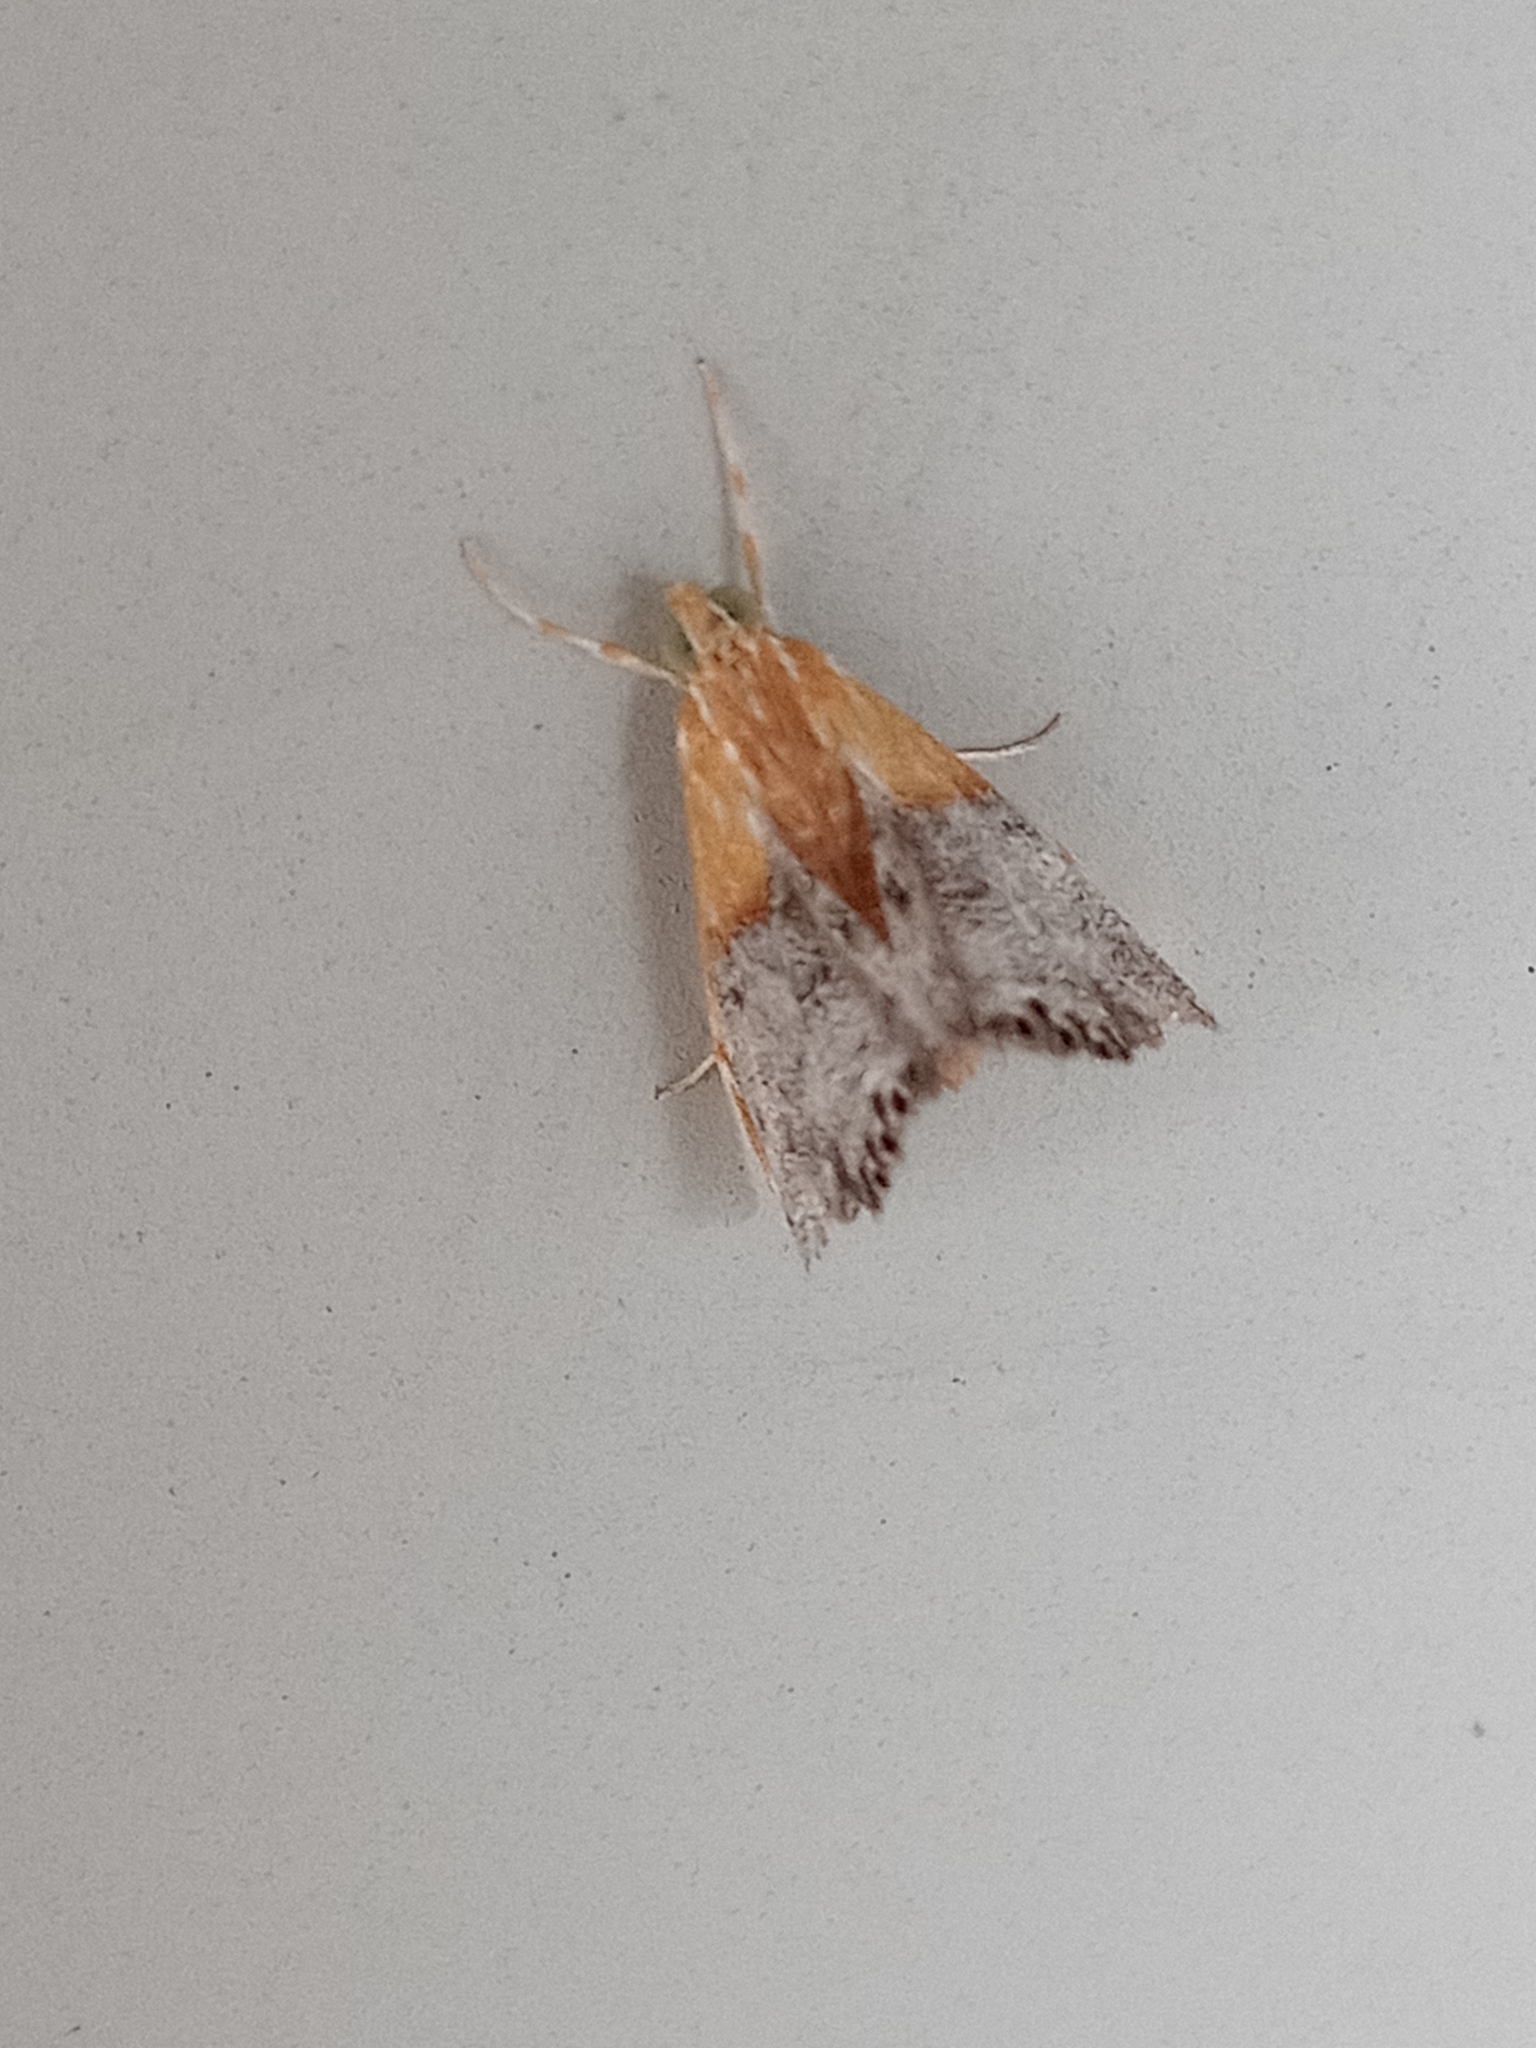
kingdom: Animalia
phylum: Arthropoda
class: Insecta
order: Lepidoptera
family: Crambidae
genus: Chalcoela
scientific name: Chalcoela iphitalis
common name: Sooty-winged chalcoela moth
